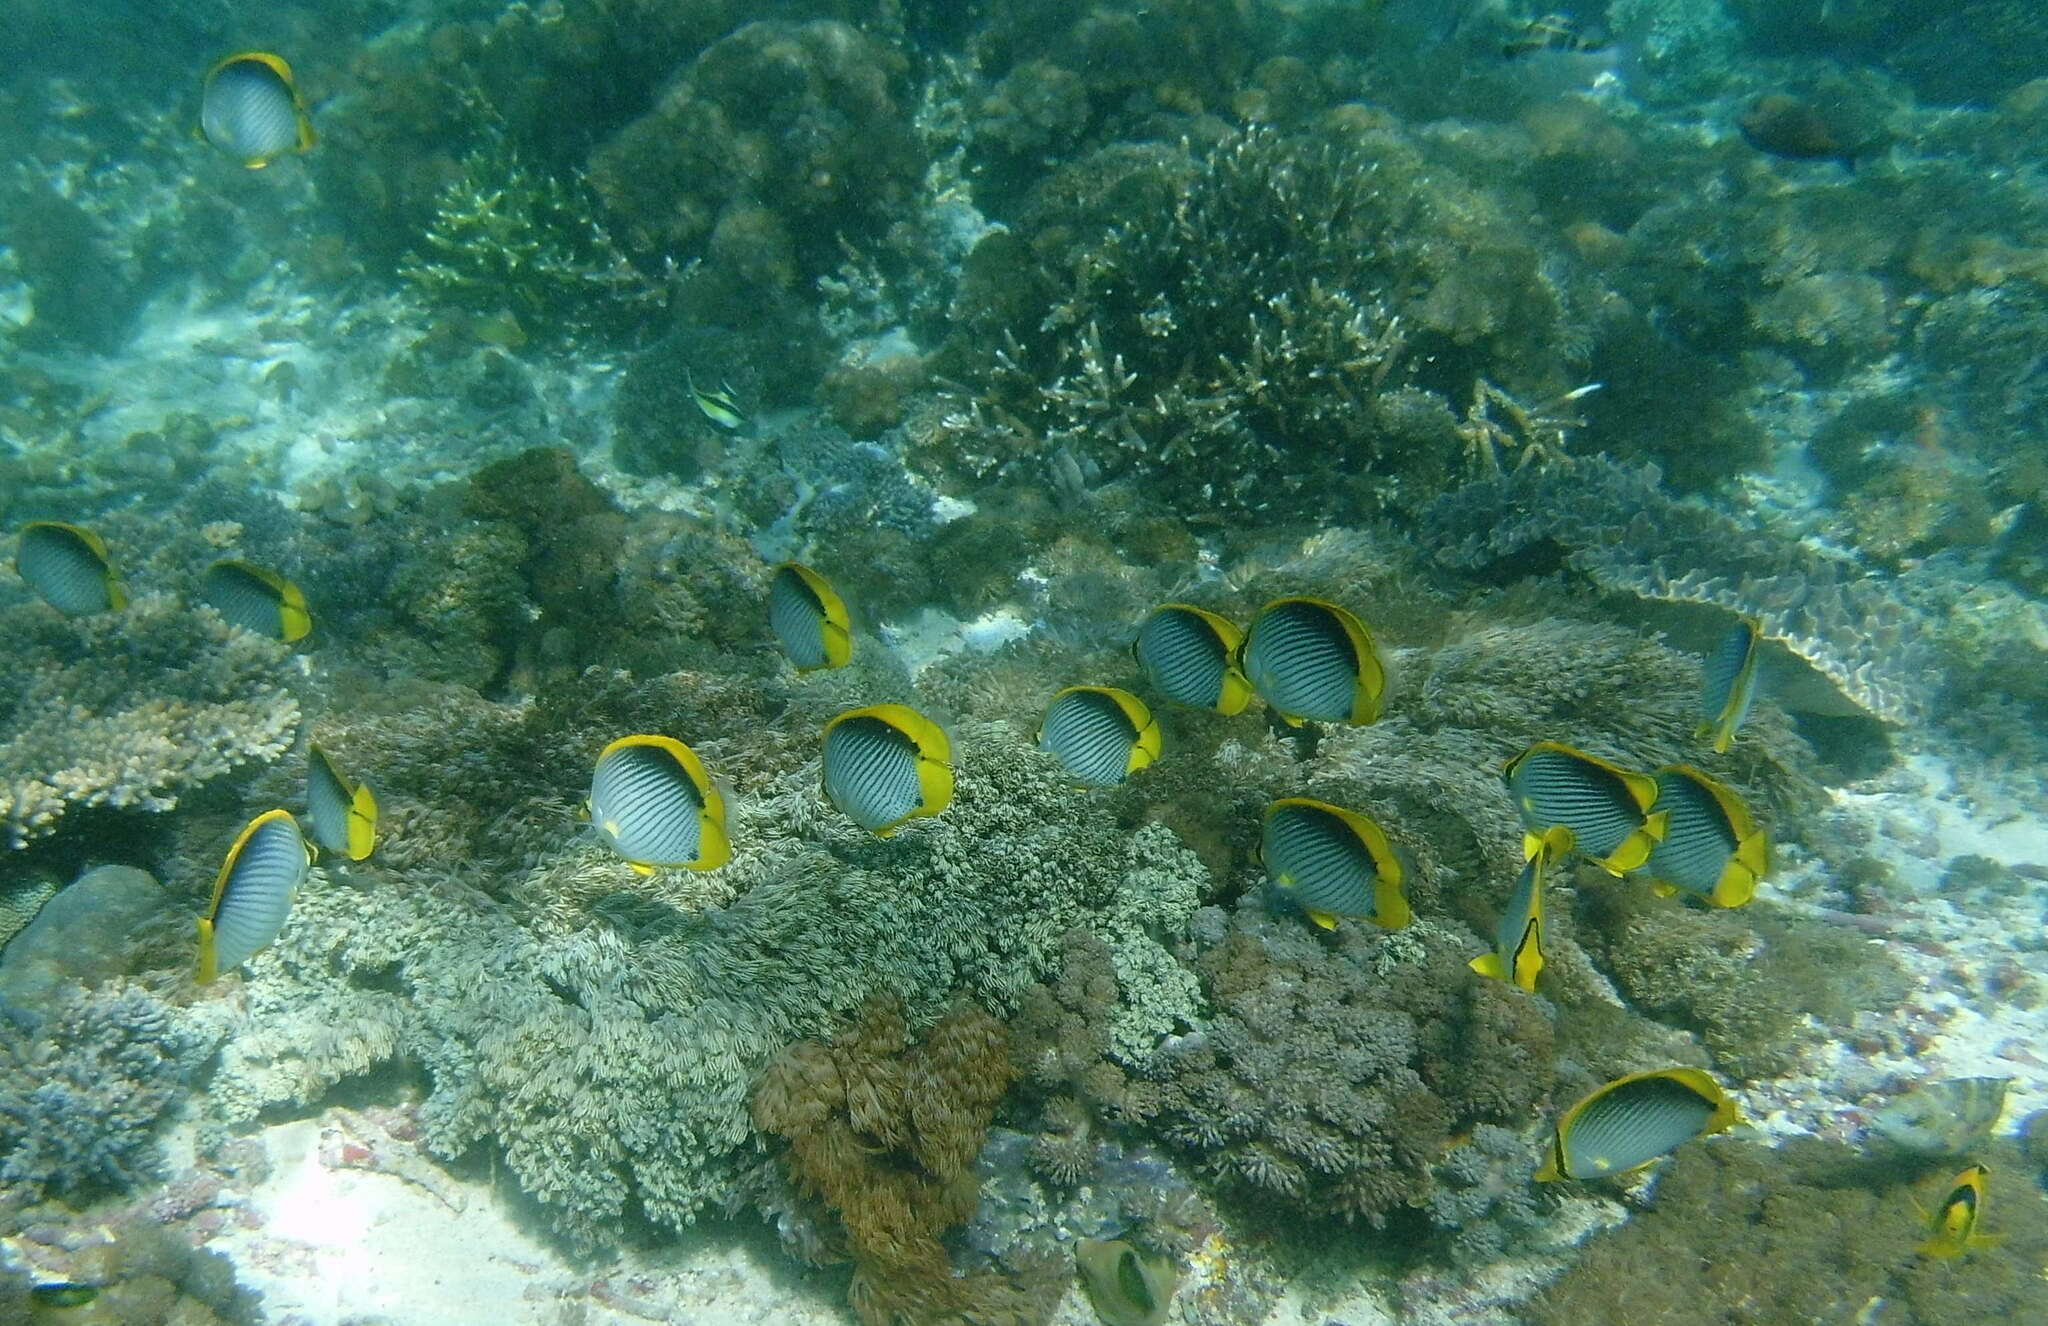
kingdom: Animalia
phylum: Chordata
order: Perciformes
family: Chaetodontidae
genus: Chaetodon
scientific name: Chaetodon melannotus
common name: Blackback butterflyfish
